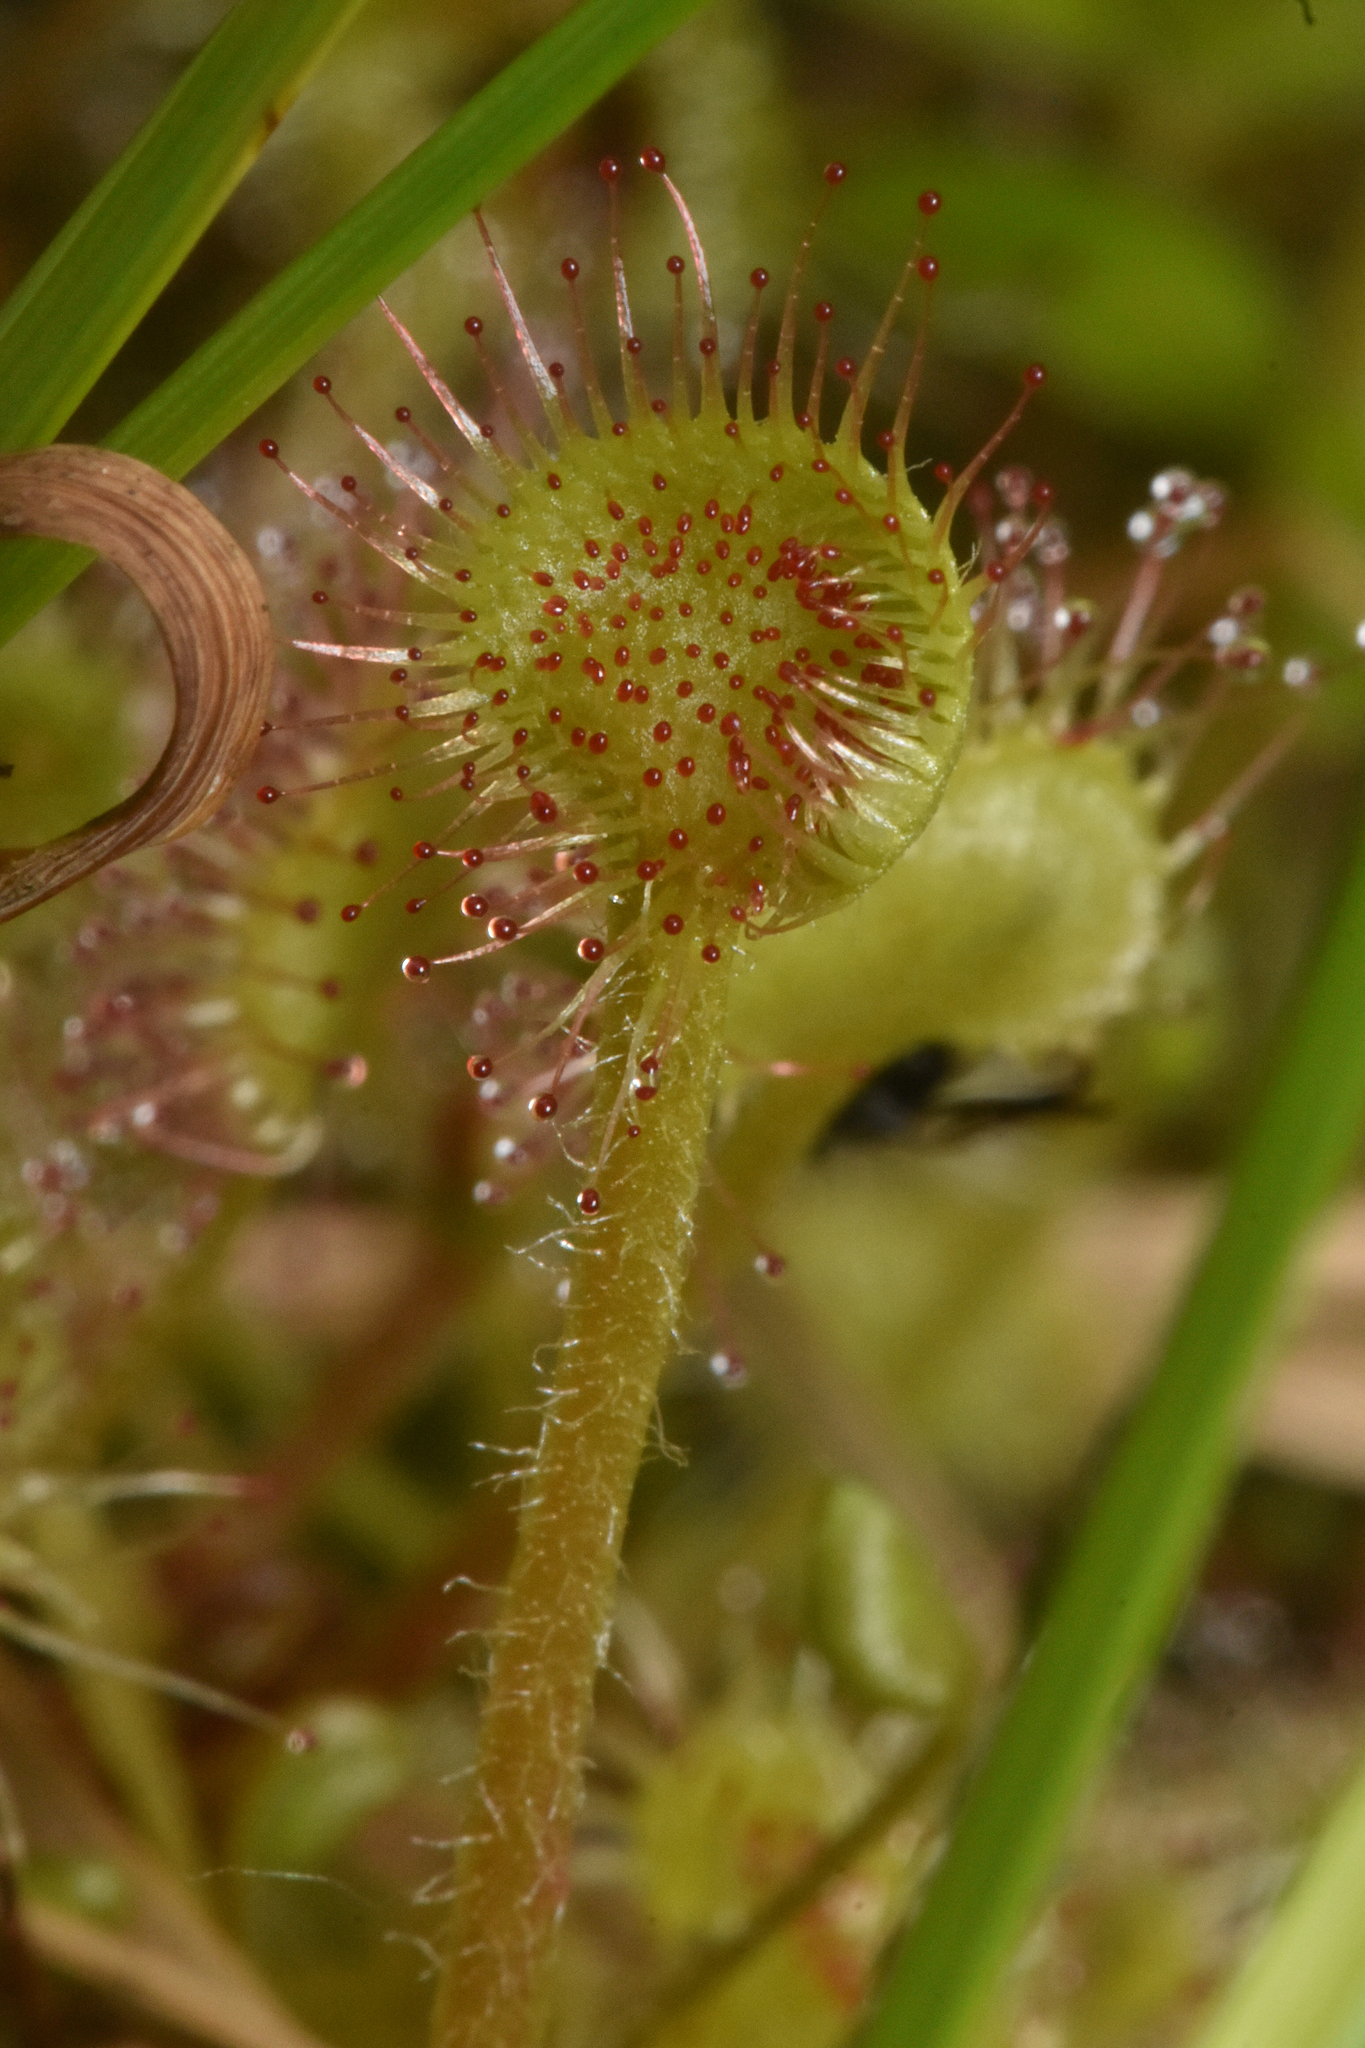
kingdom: Plantae
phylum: Tracheophyta
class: Magnoliopsida
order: Caryophyllales
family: Droseraceae
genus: Drosera
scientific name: Drosera rotundifolia
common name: Round-leaved sundew
